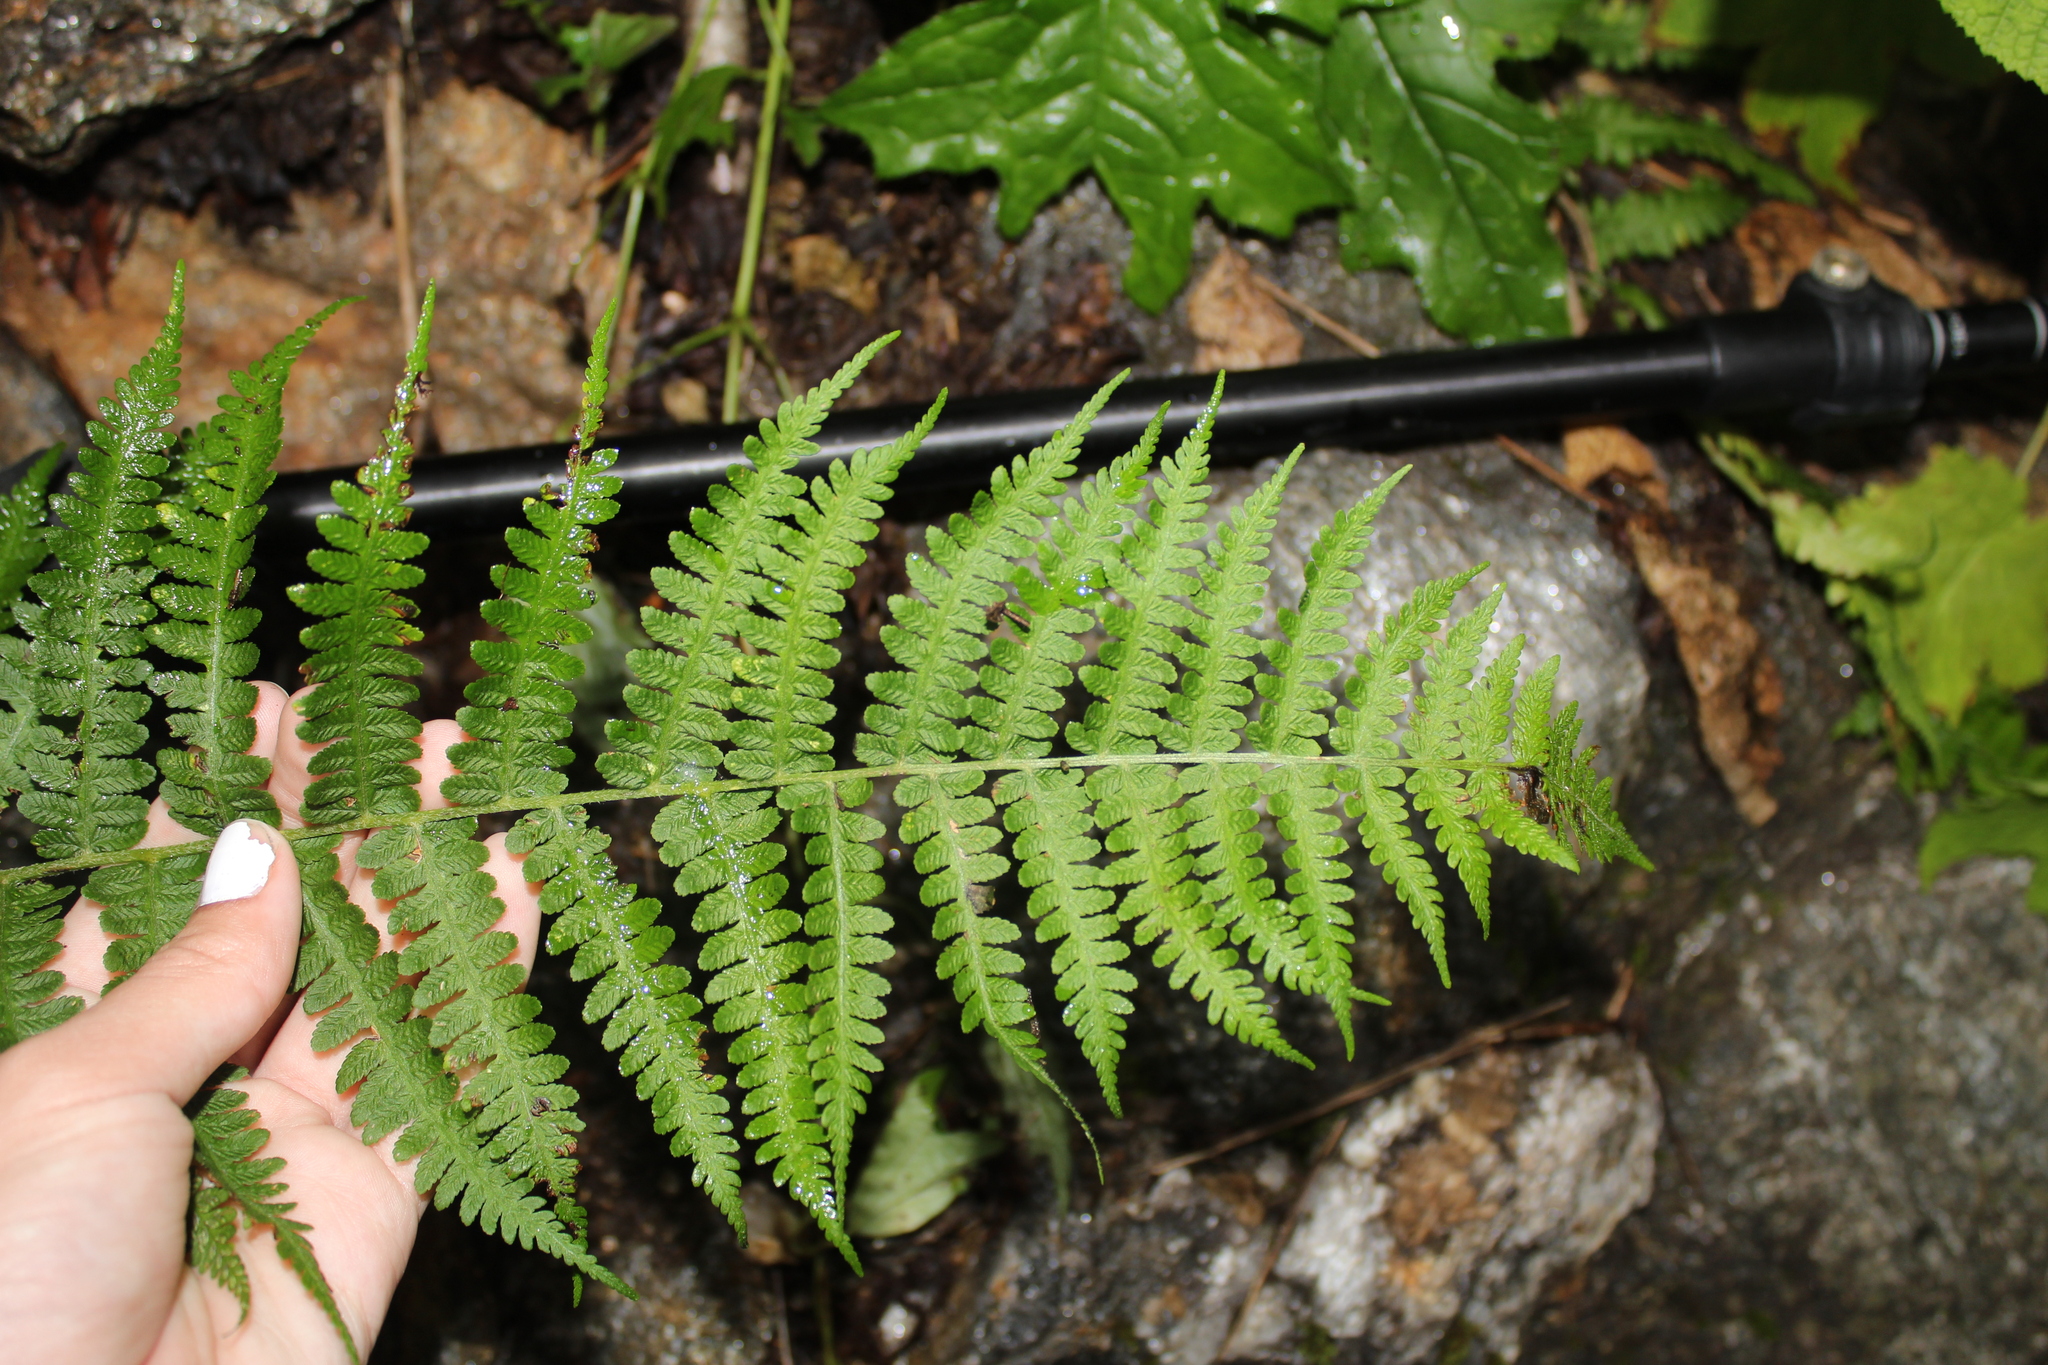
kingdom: Plantae
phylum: Tracheophyta
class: Polypodiopsida
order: Polypodiales
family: Athyriaceae
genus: Deparia
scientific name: Deparia acrostichoides
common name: Silver false spleenwort
